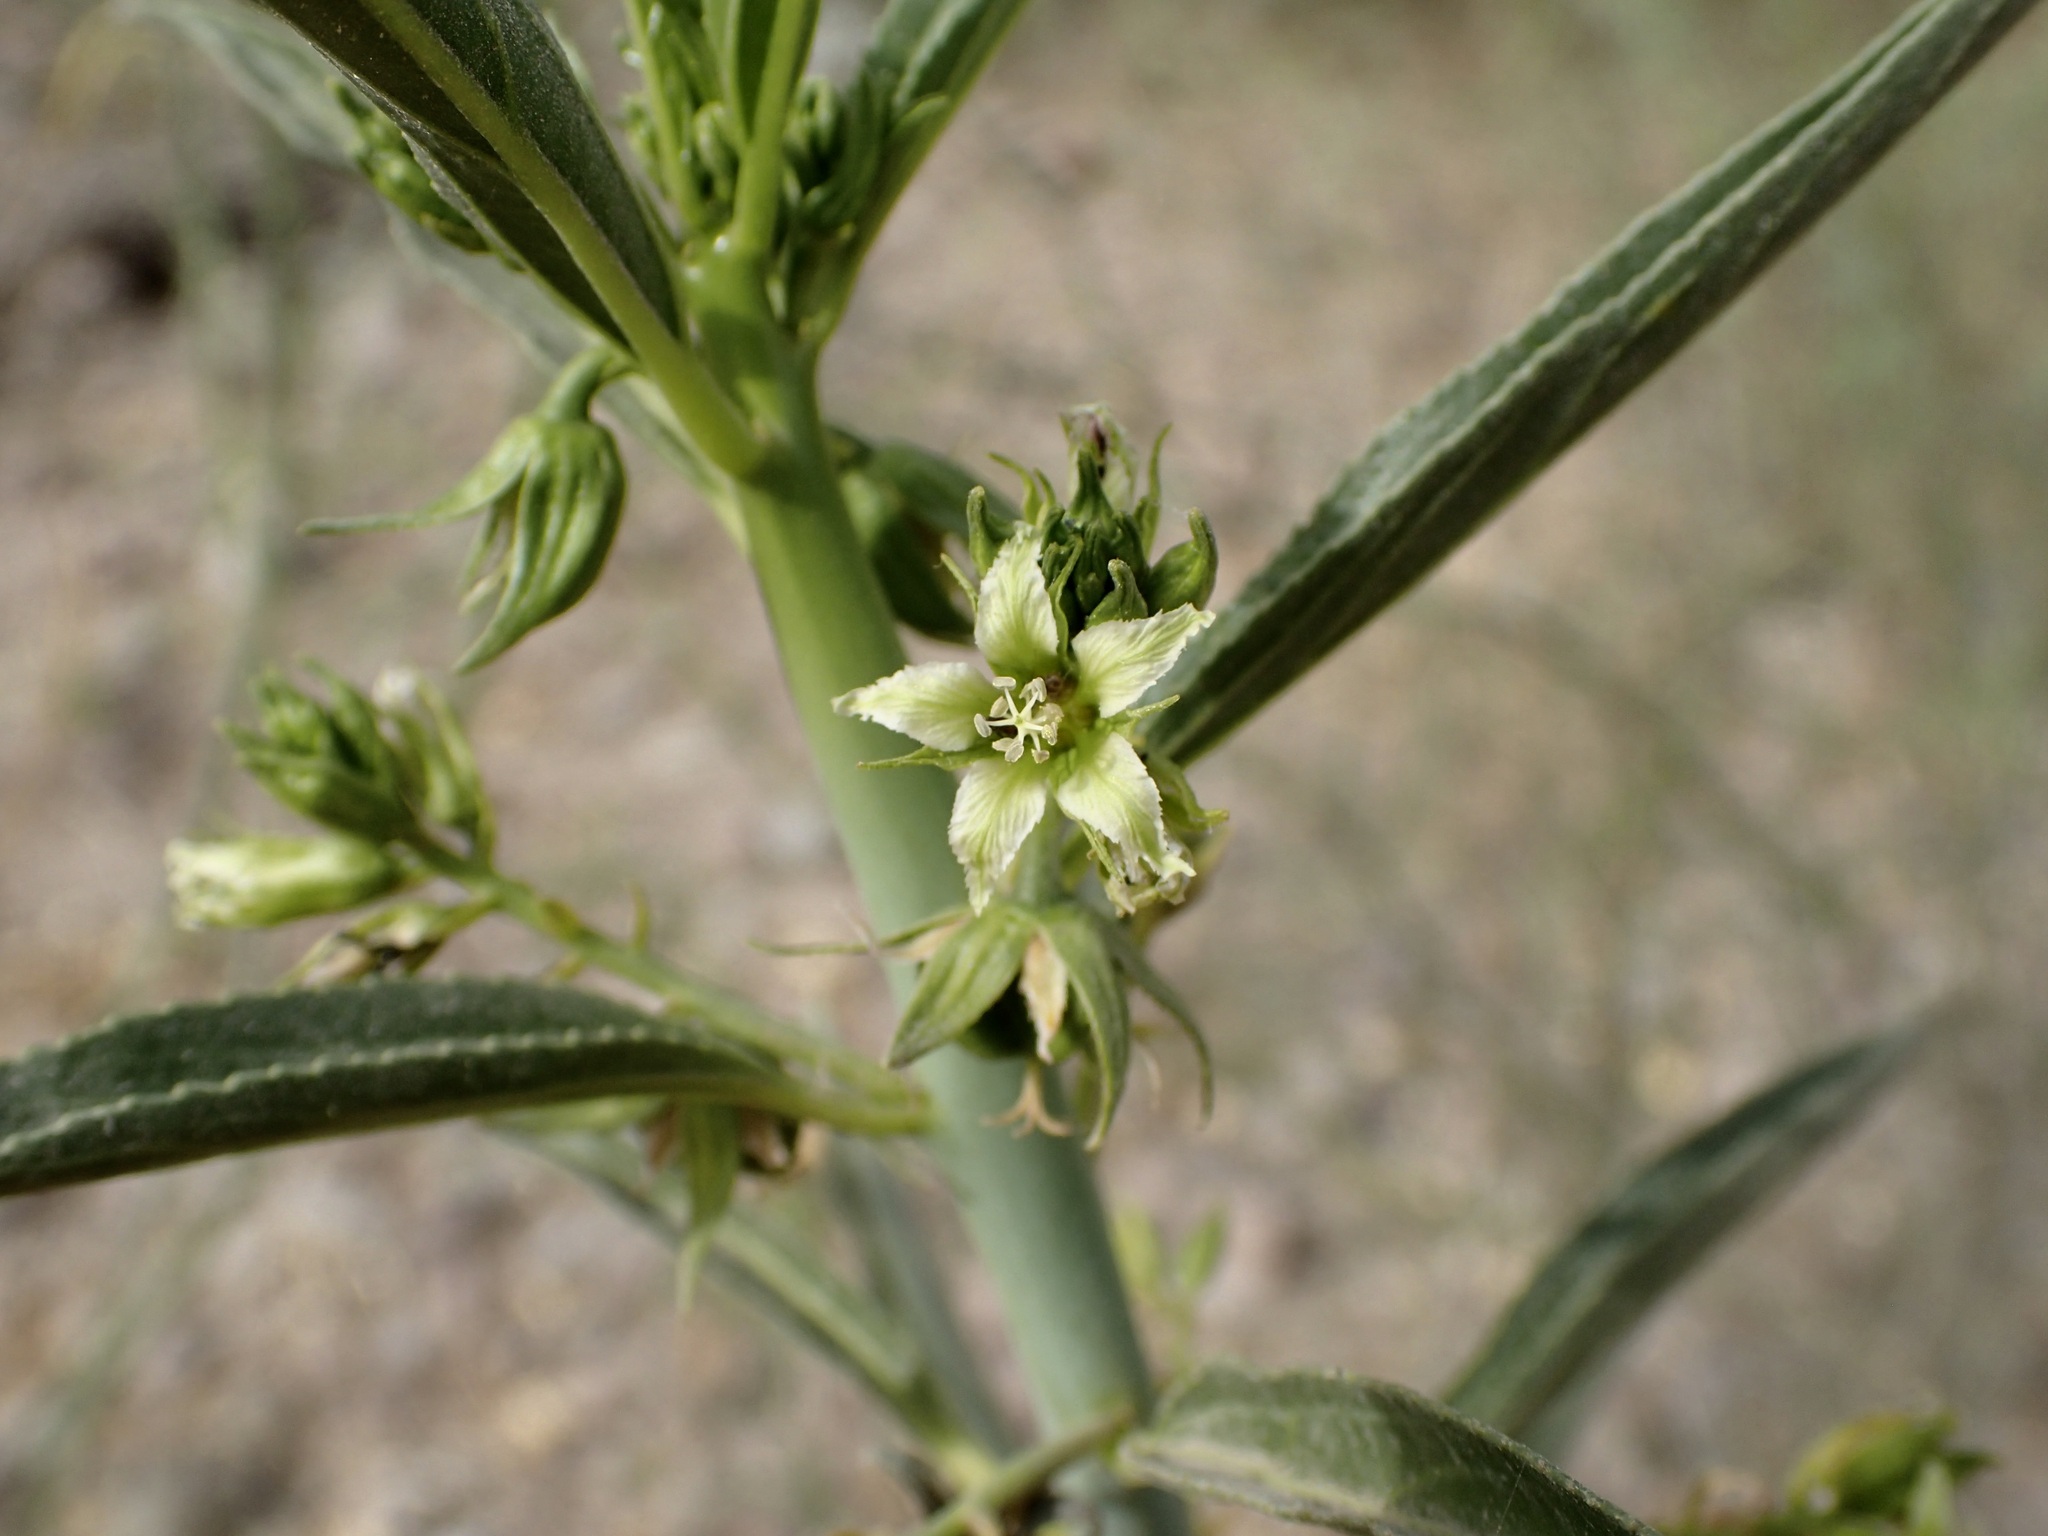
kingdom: Plantae
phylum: Tracheophyta
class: Magnoliopsida
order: Malpighiales
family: Euphorbiaceae
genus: Ditaxis
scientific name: Ditaxis brandegeei
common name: Sonoran silverbush
